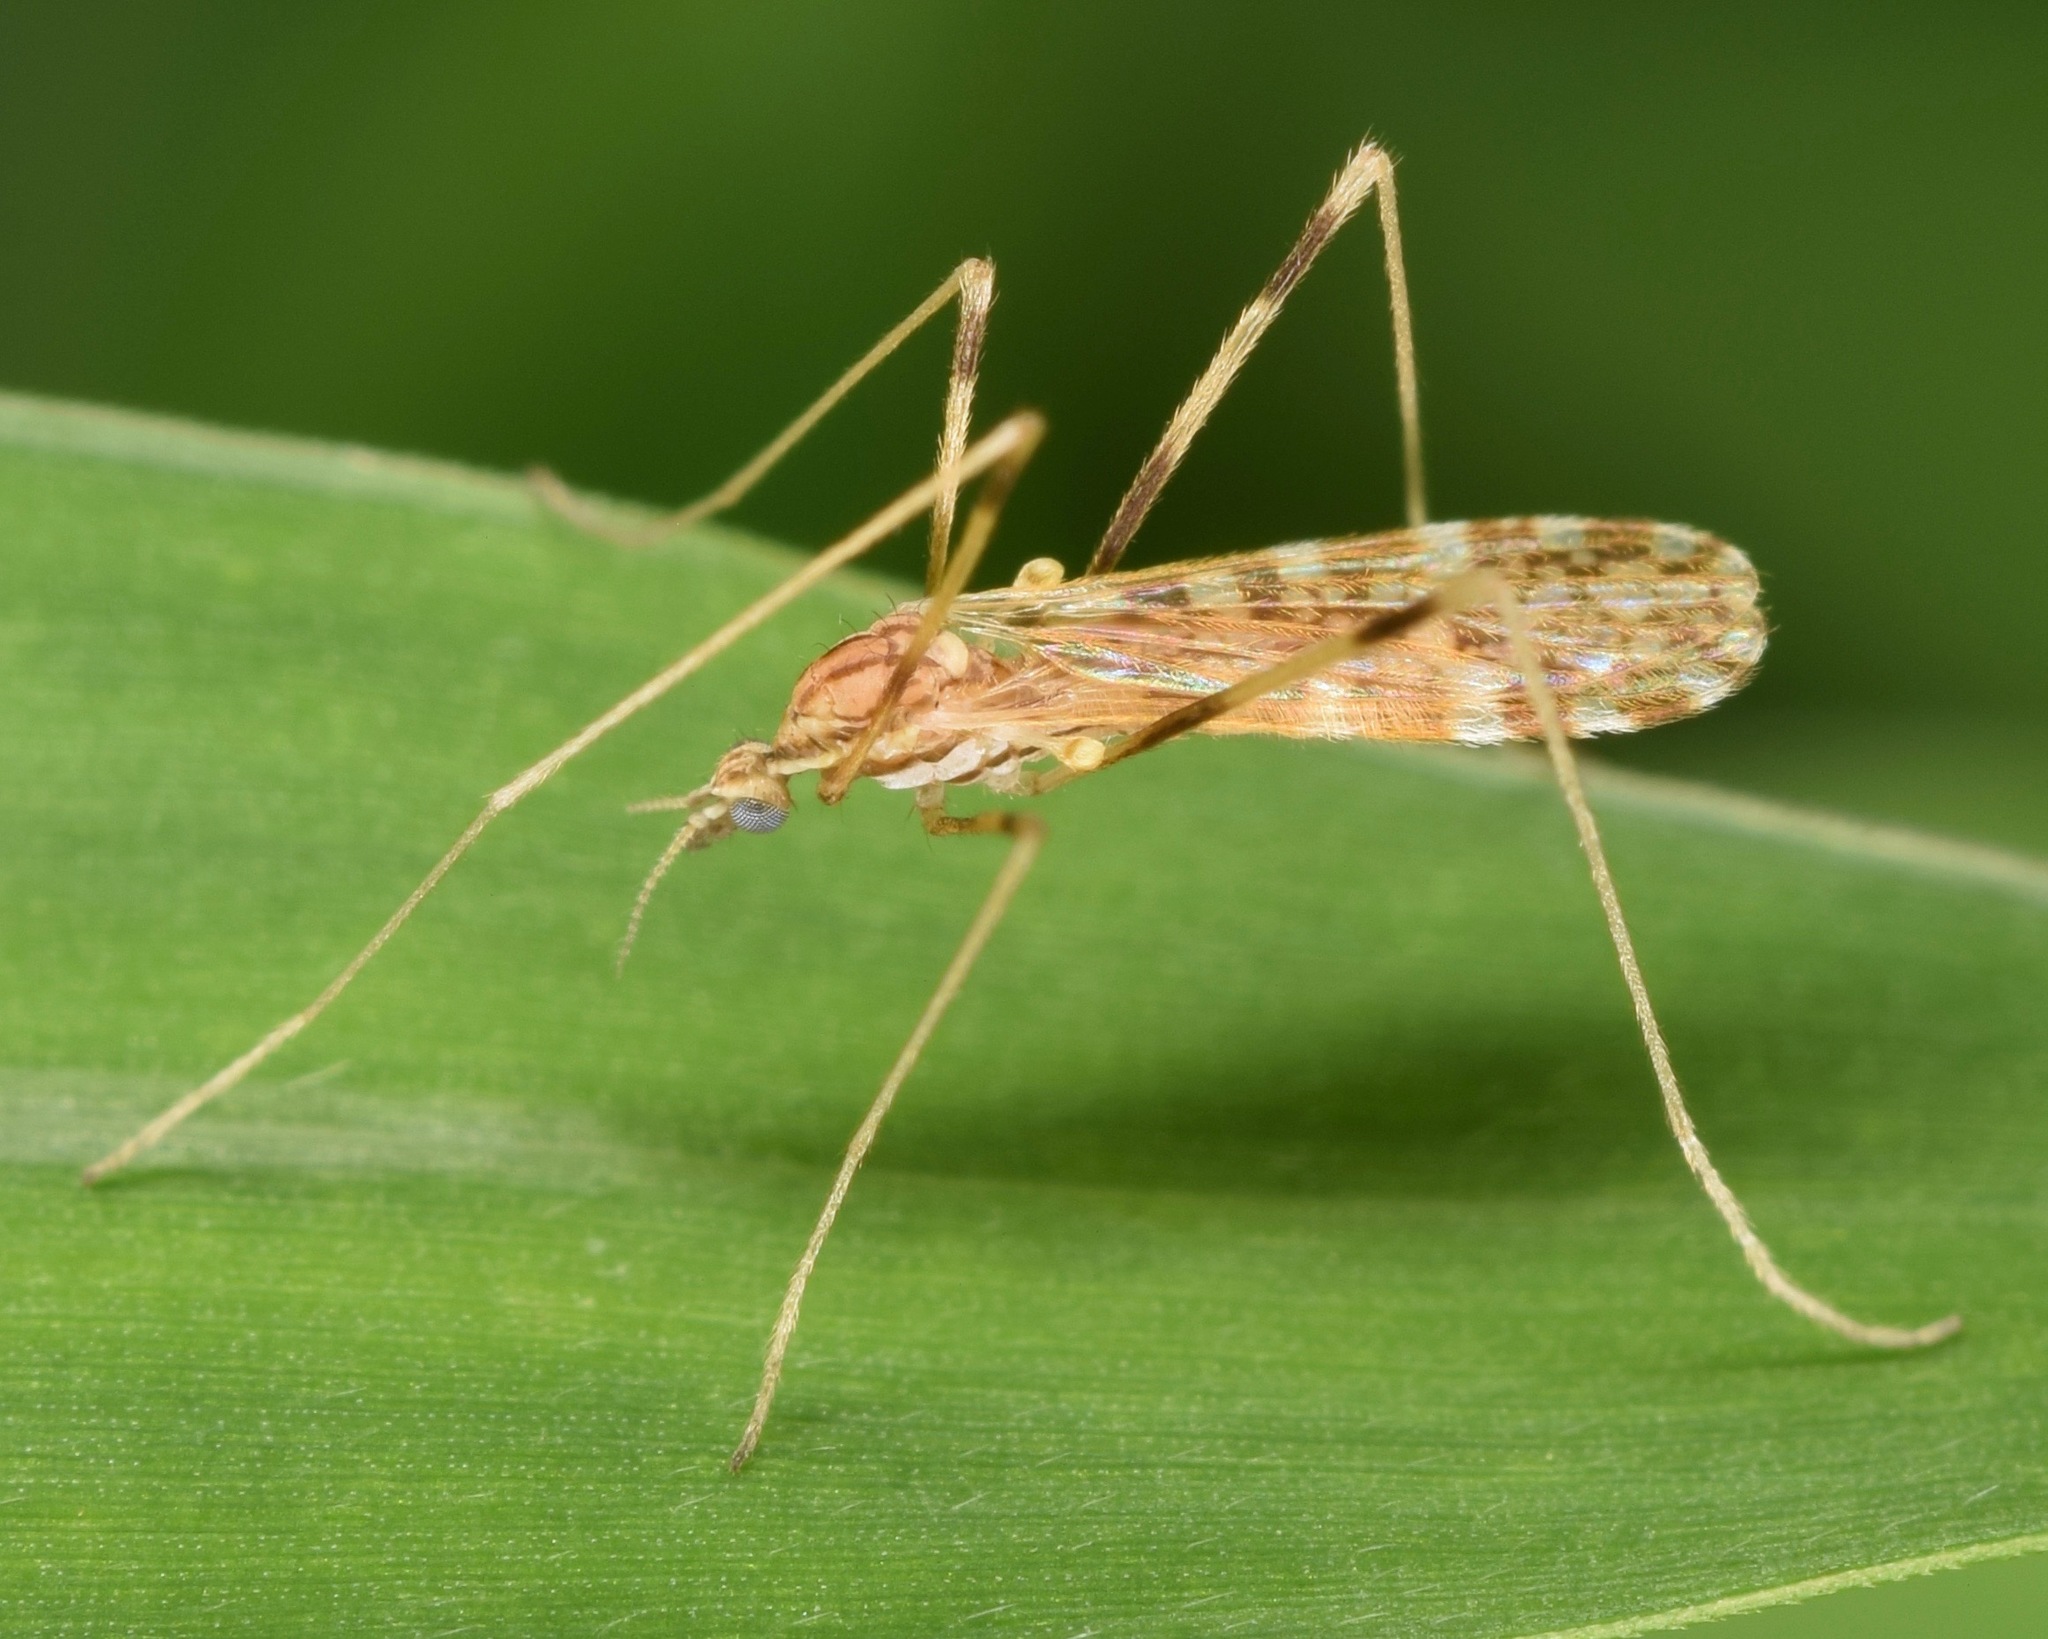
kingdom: Animalia
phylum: Arthropoda
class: Insecta
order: Diptera
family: Limoniidae
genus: Erioptera
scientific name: Erioptera caliptera
